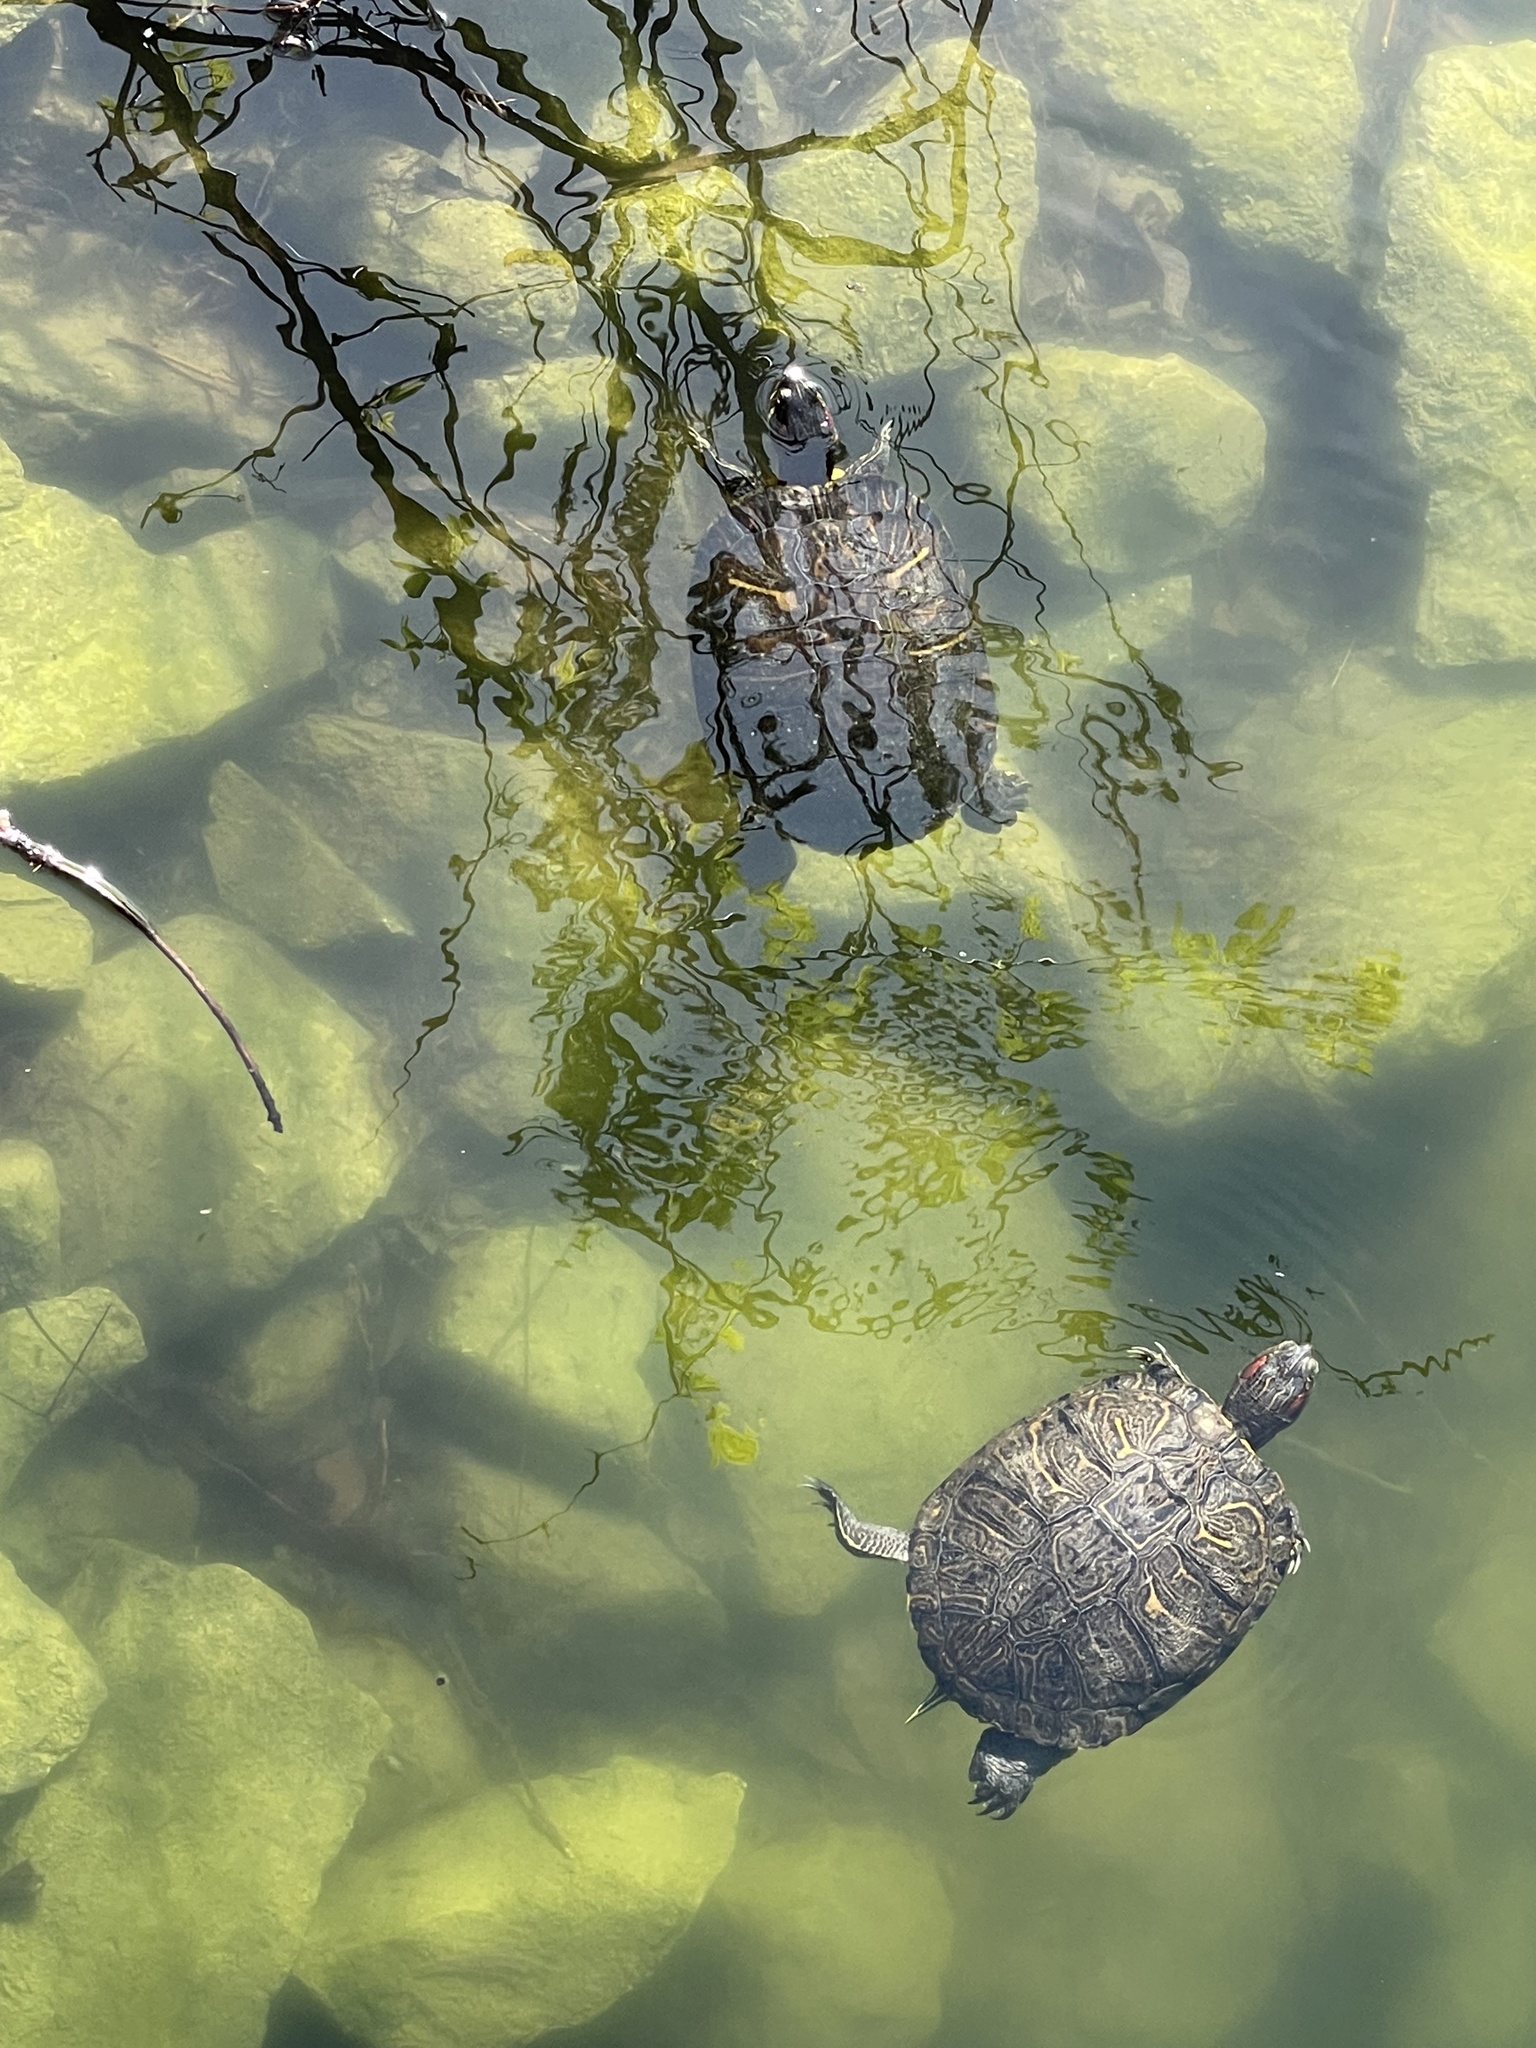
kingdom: Animalia
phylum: Chordata
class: Testudines
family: Emydidae
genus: Trachemys
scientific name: Trachemys scripta
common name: Slider
